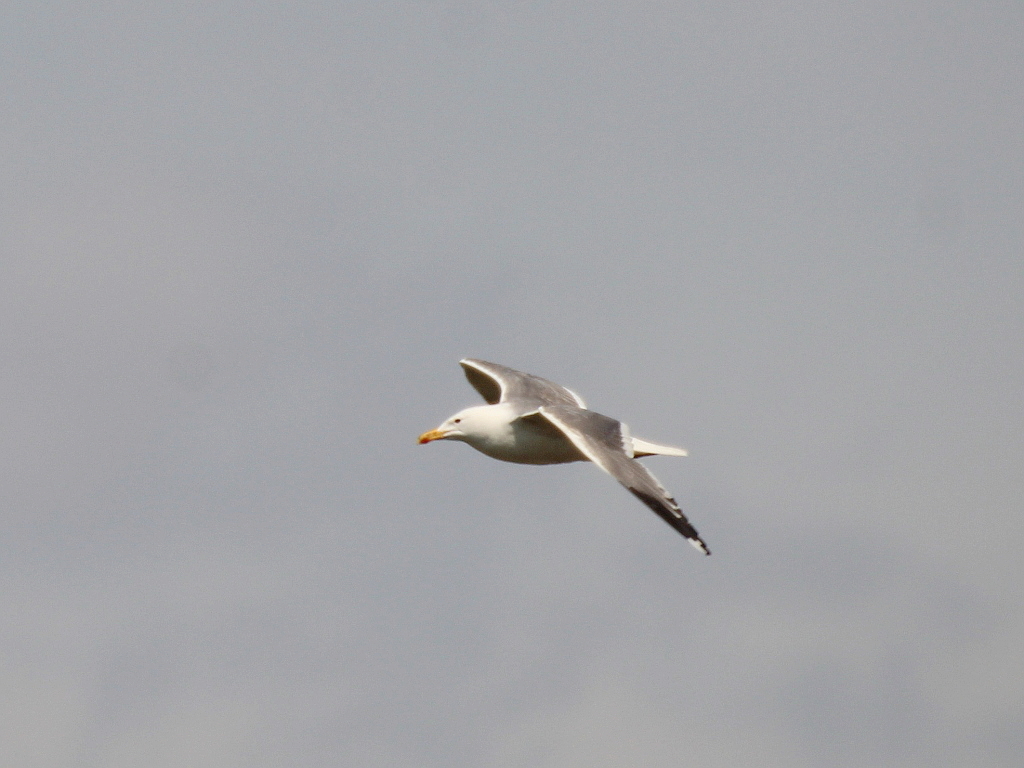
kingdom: Animalia
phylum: Chordata
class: Aves
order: Charadriiformes
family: Laridae
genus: Larus
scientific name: Larus fuscus
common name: Lesser black-backed gull
